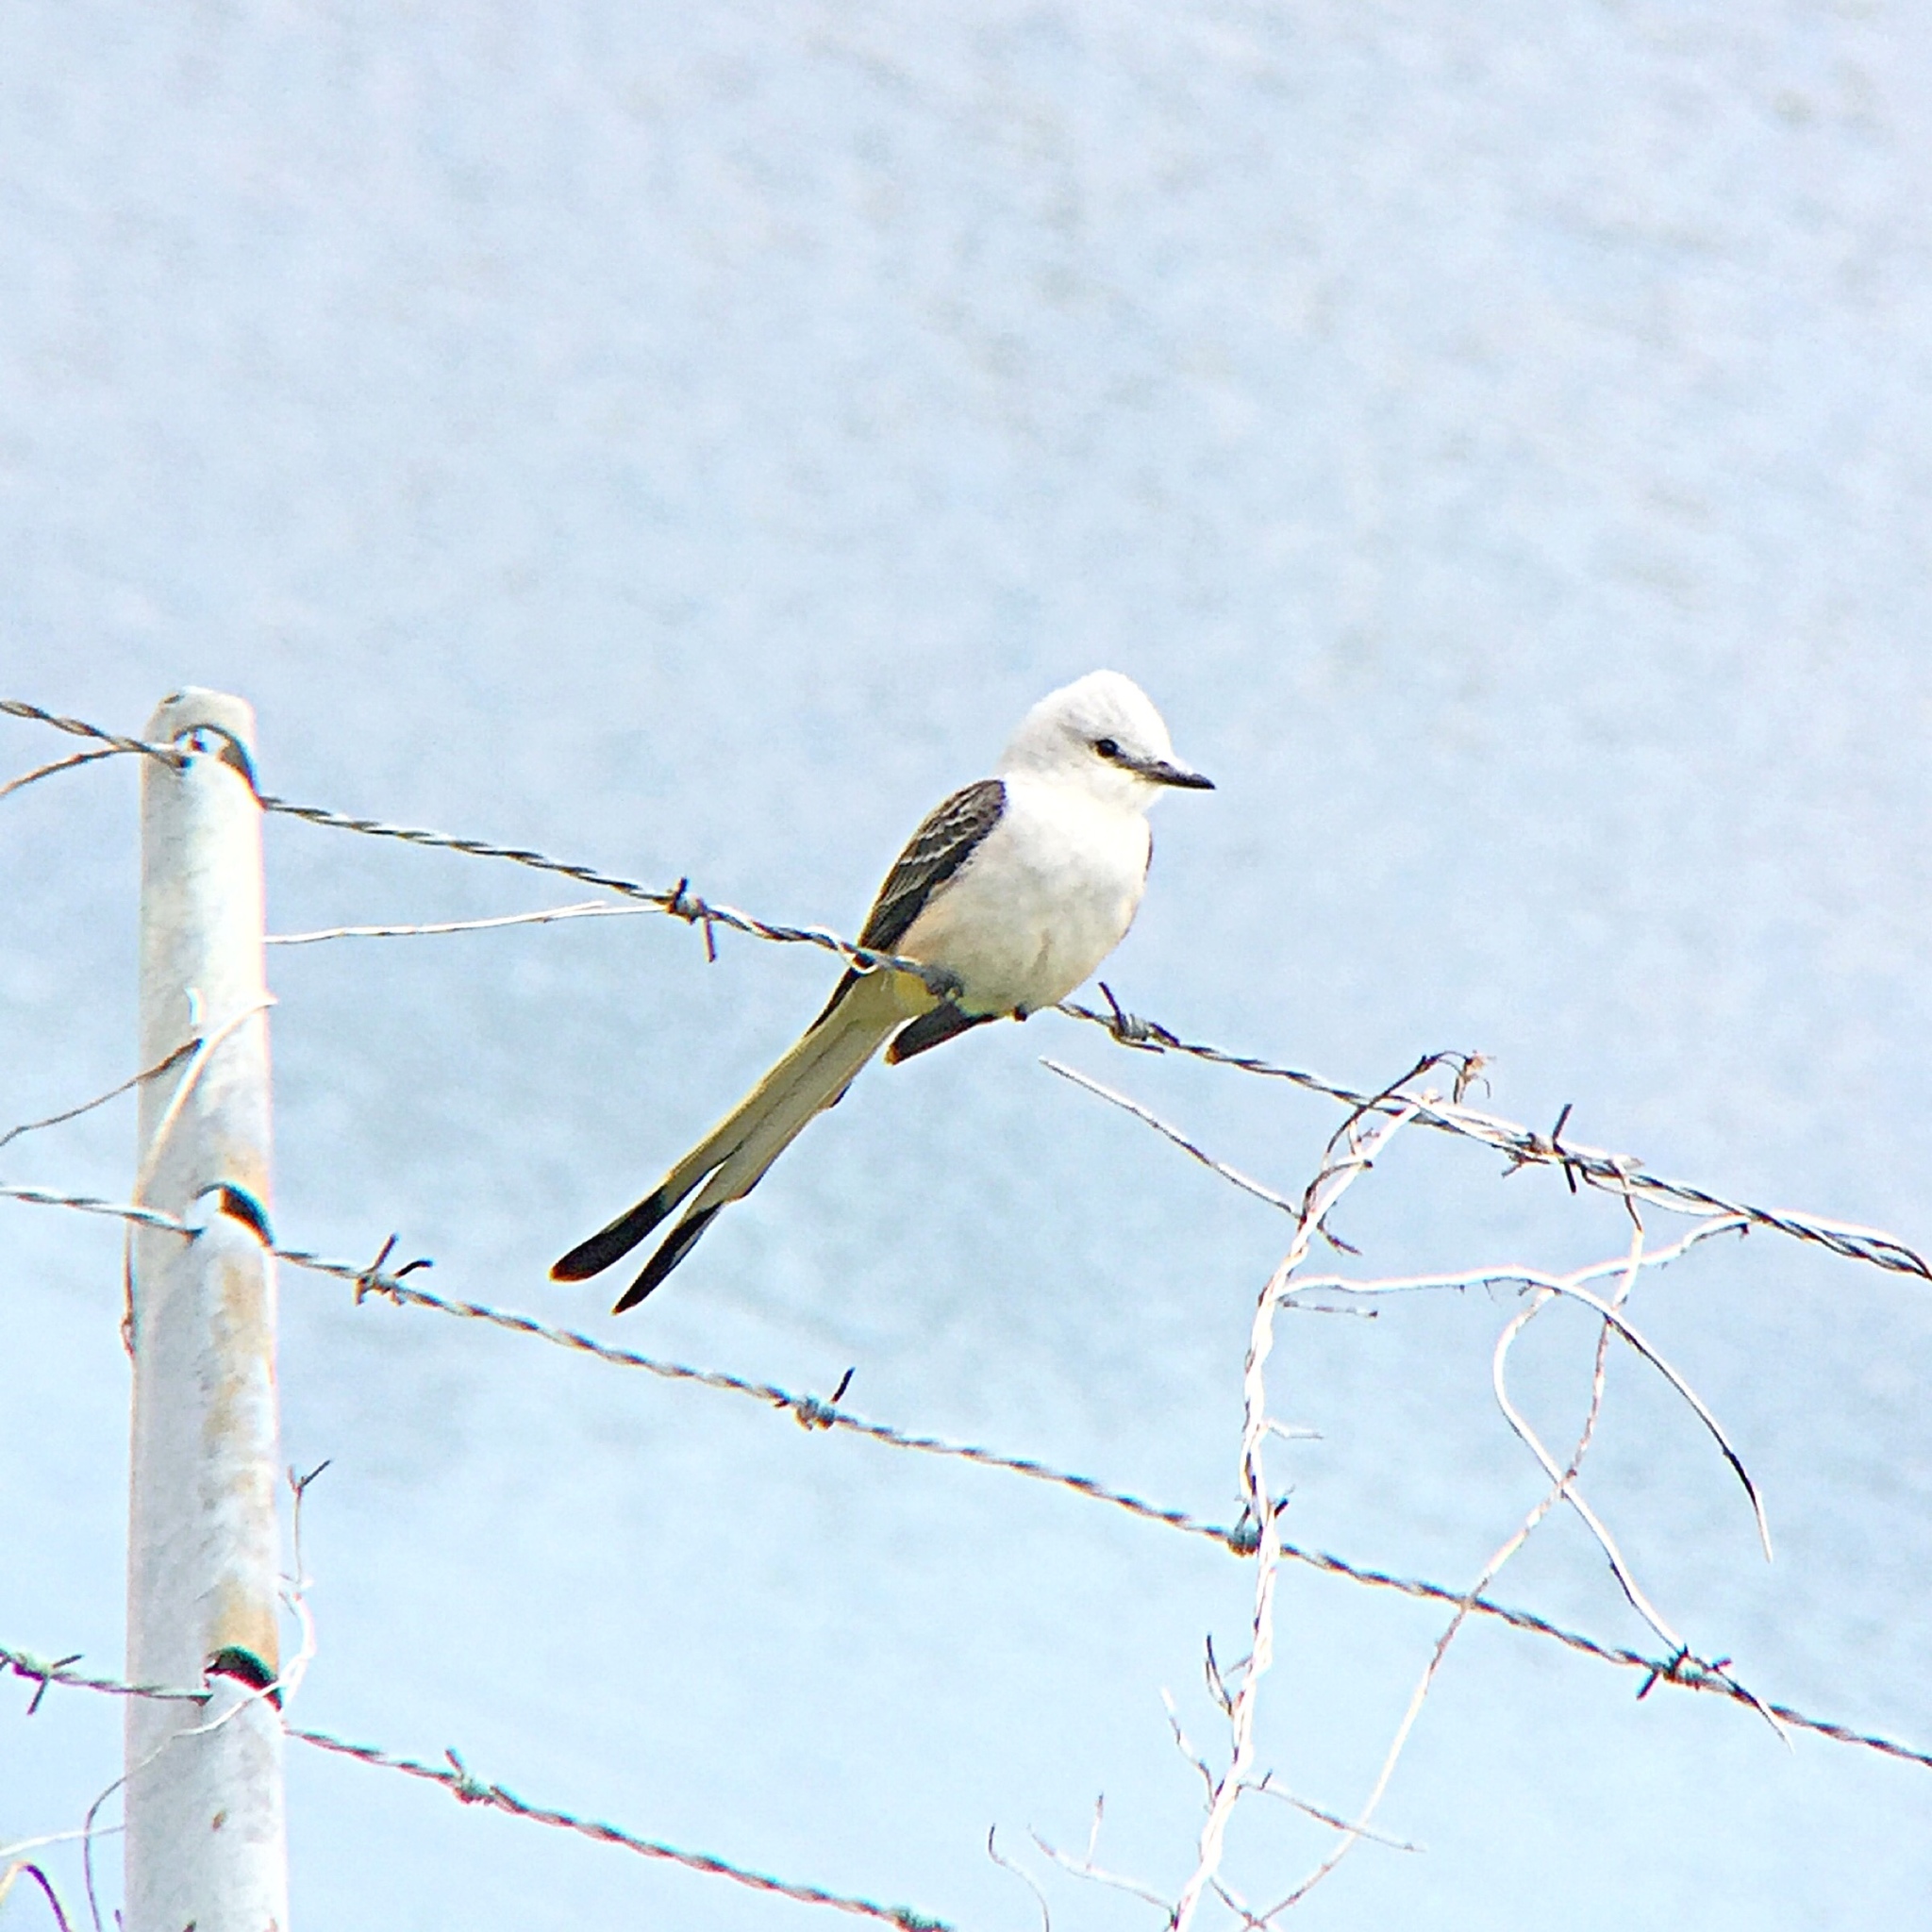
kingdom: Animalia
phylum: Chordata
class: Aves
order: Passeriformes
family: Tyrannidae
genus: Tyrannus
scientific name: Tyrannus forficatus
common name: Scissor-tailed flycatcher
